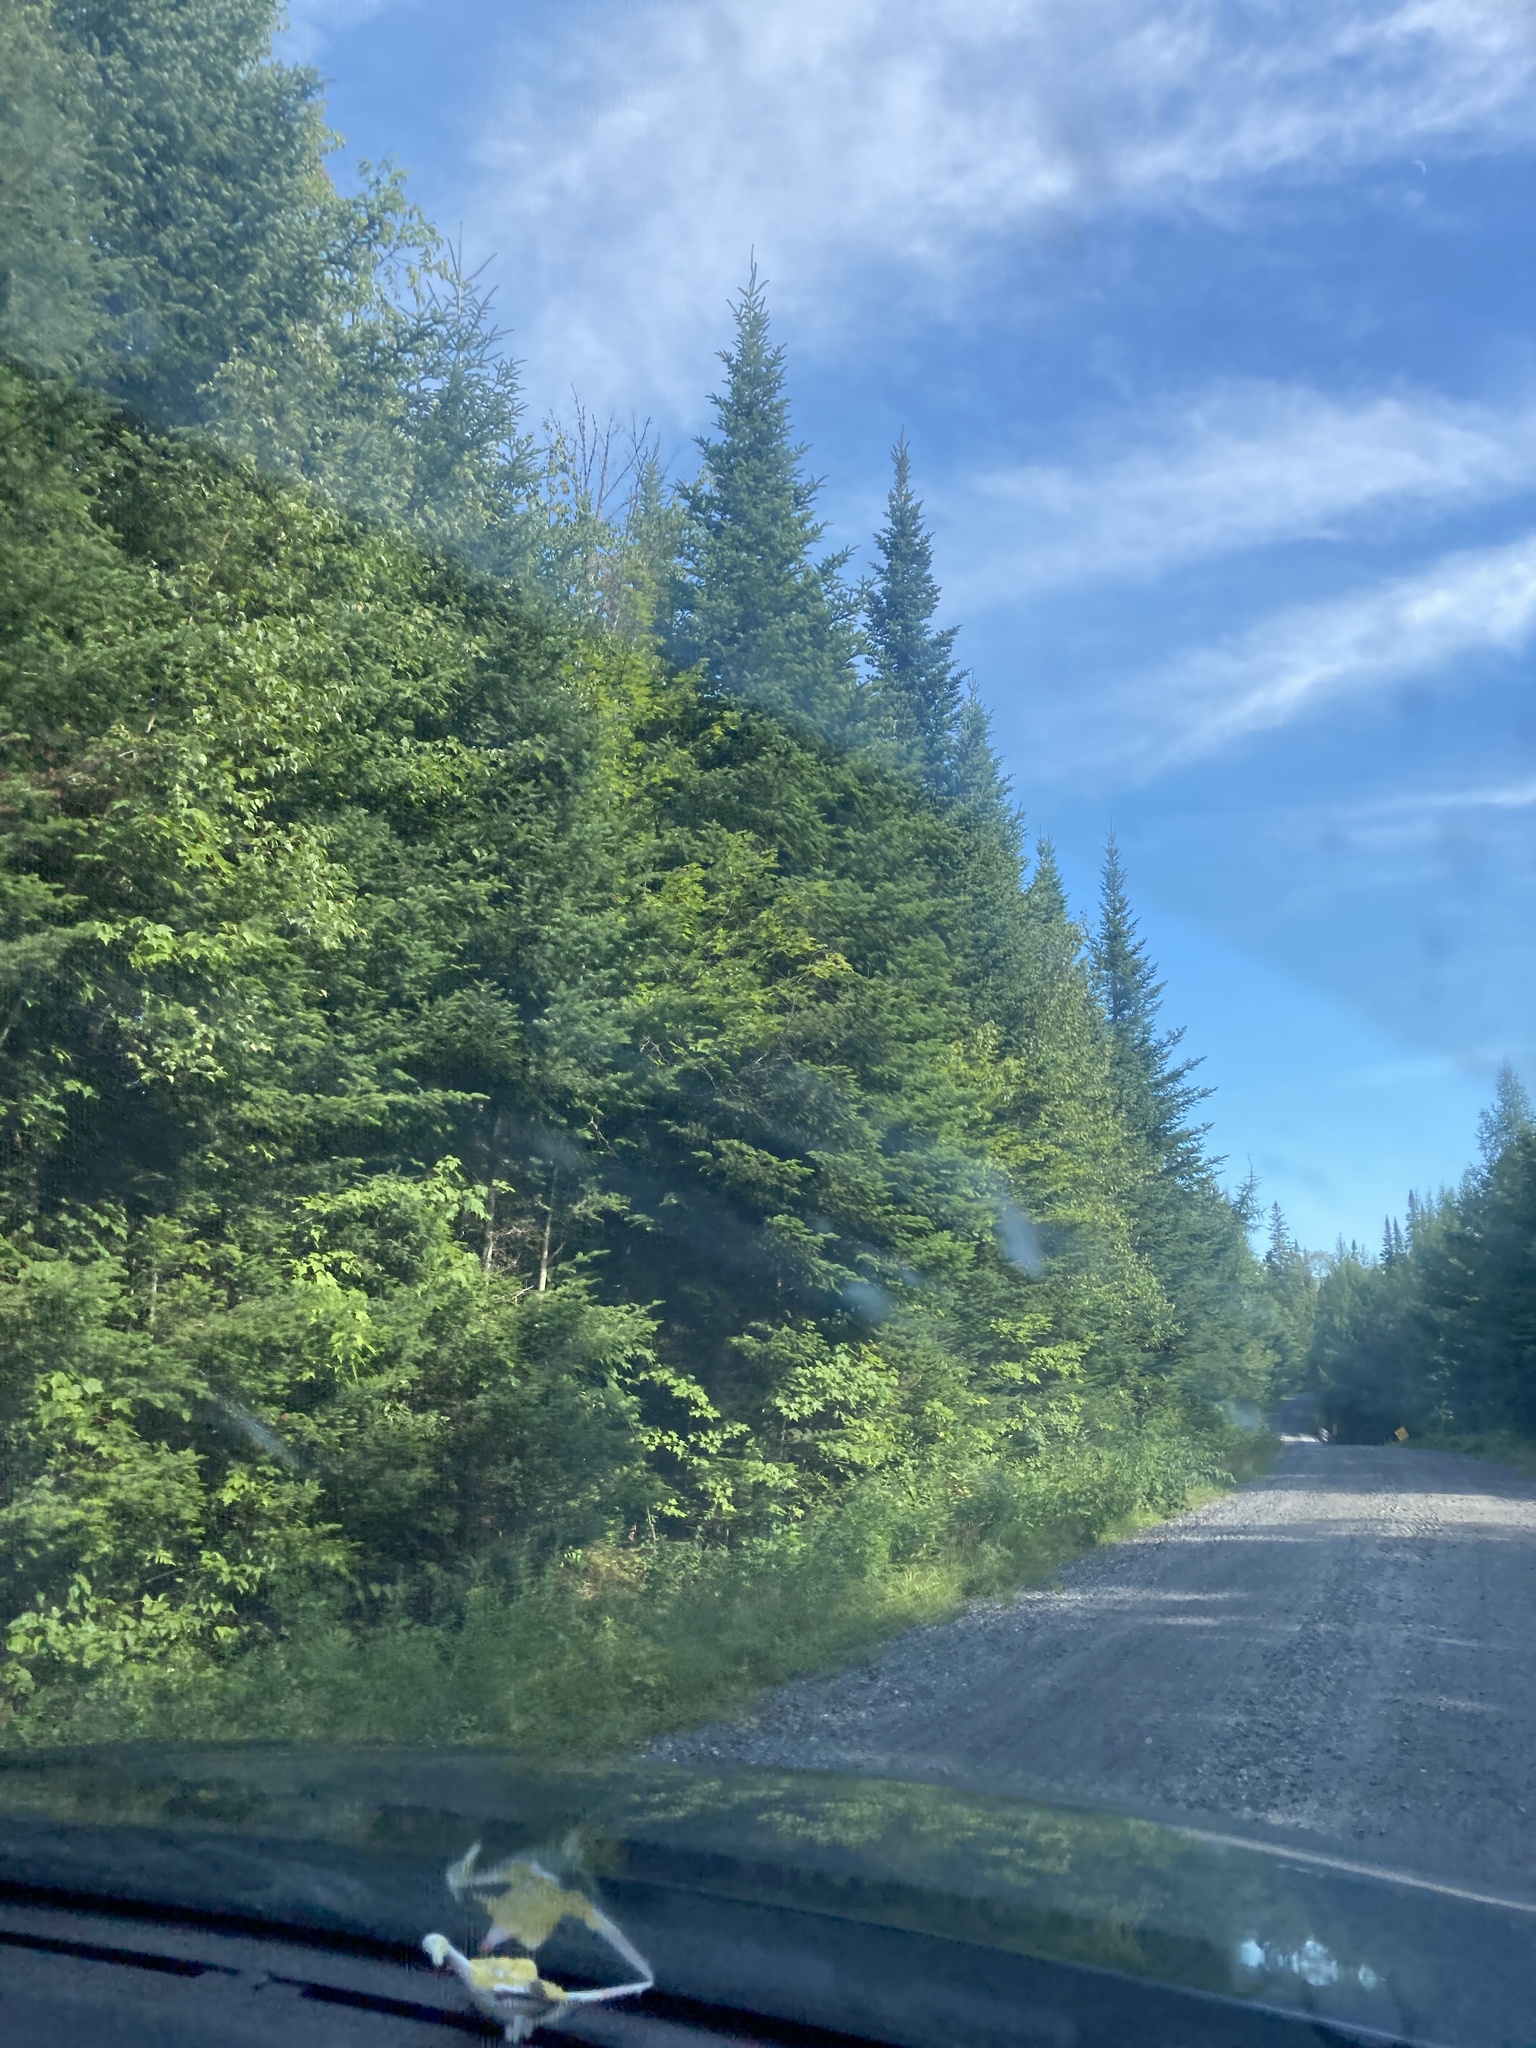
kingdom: Plantae
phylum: Tracheophyta
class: Pinopsida
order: Pinales
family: Pinaceae
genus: Abies
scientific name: Abies balsamea
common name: Balsam fir
